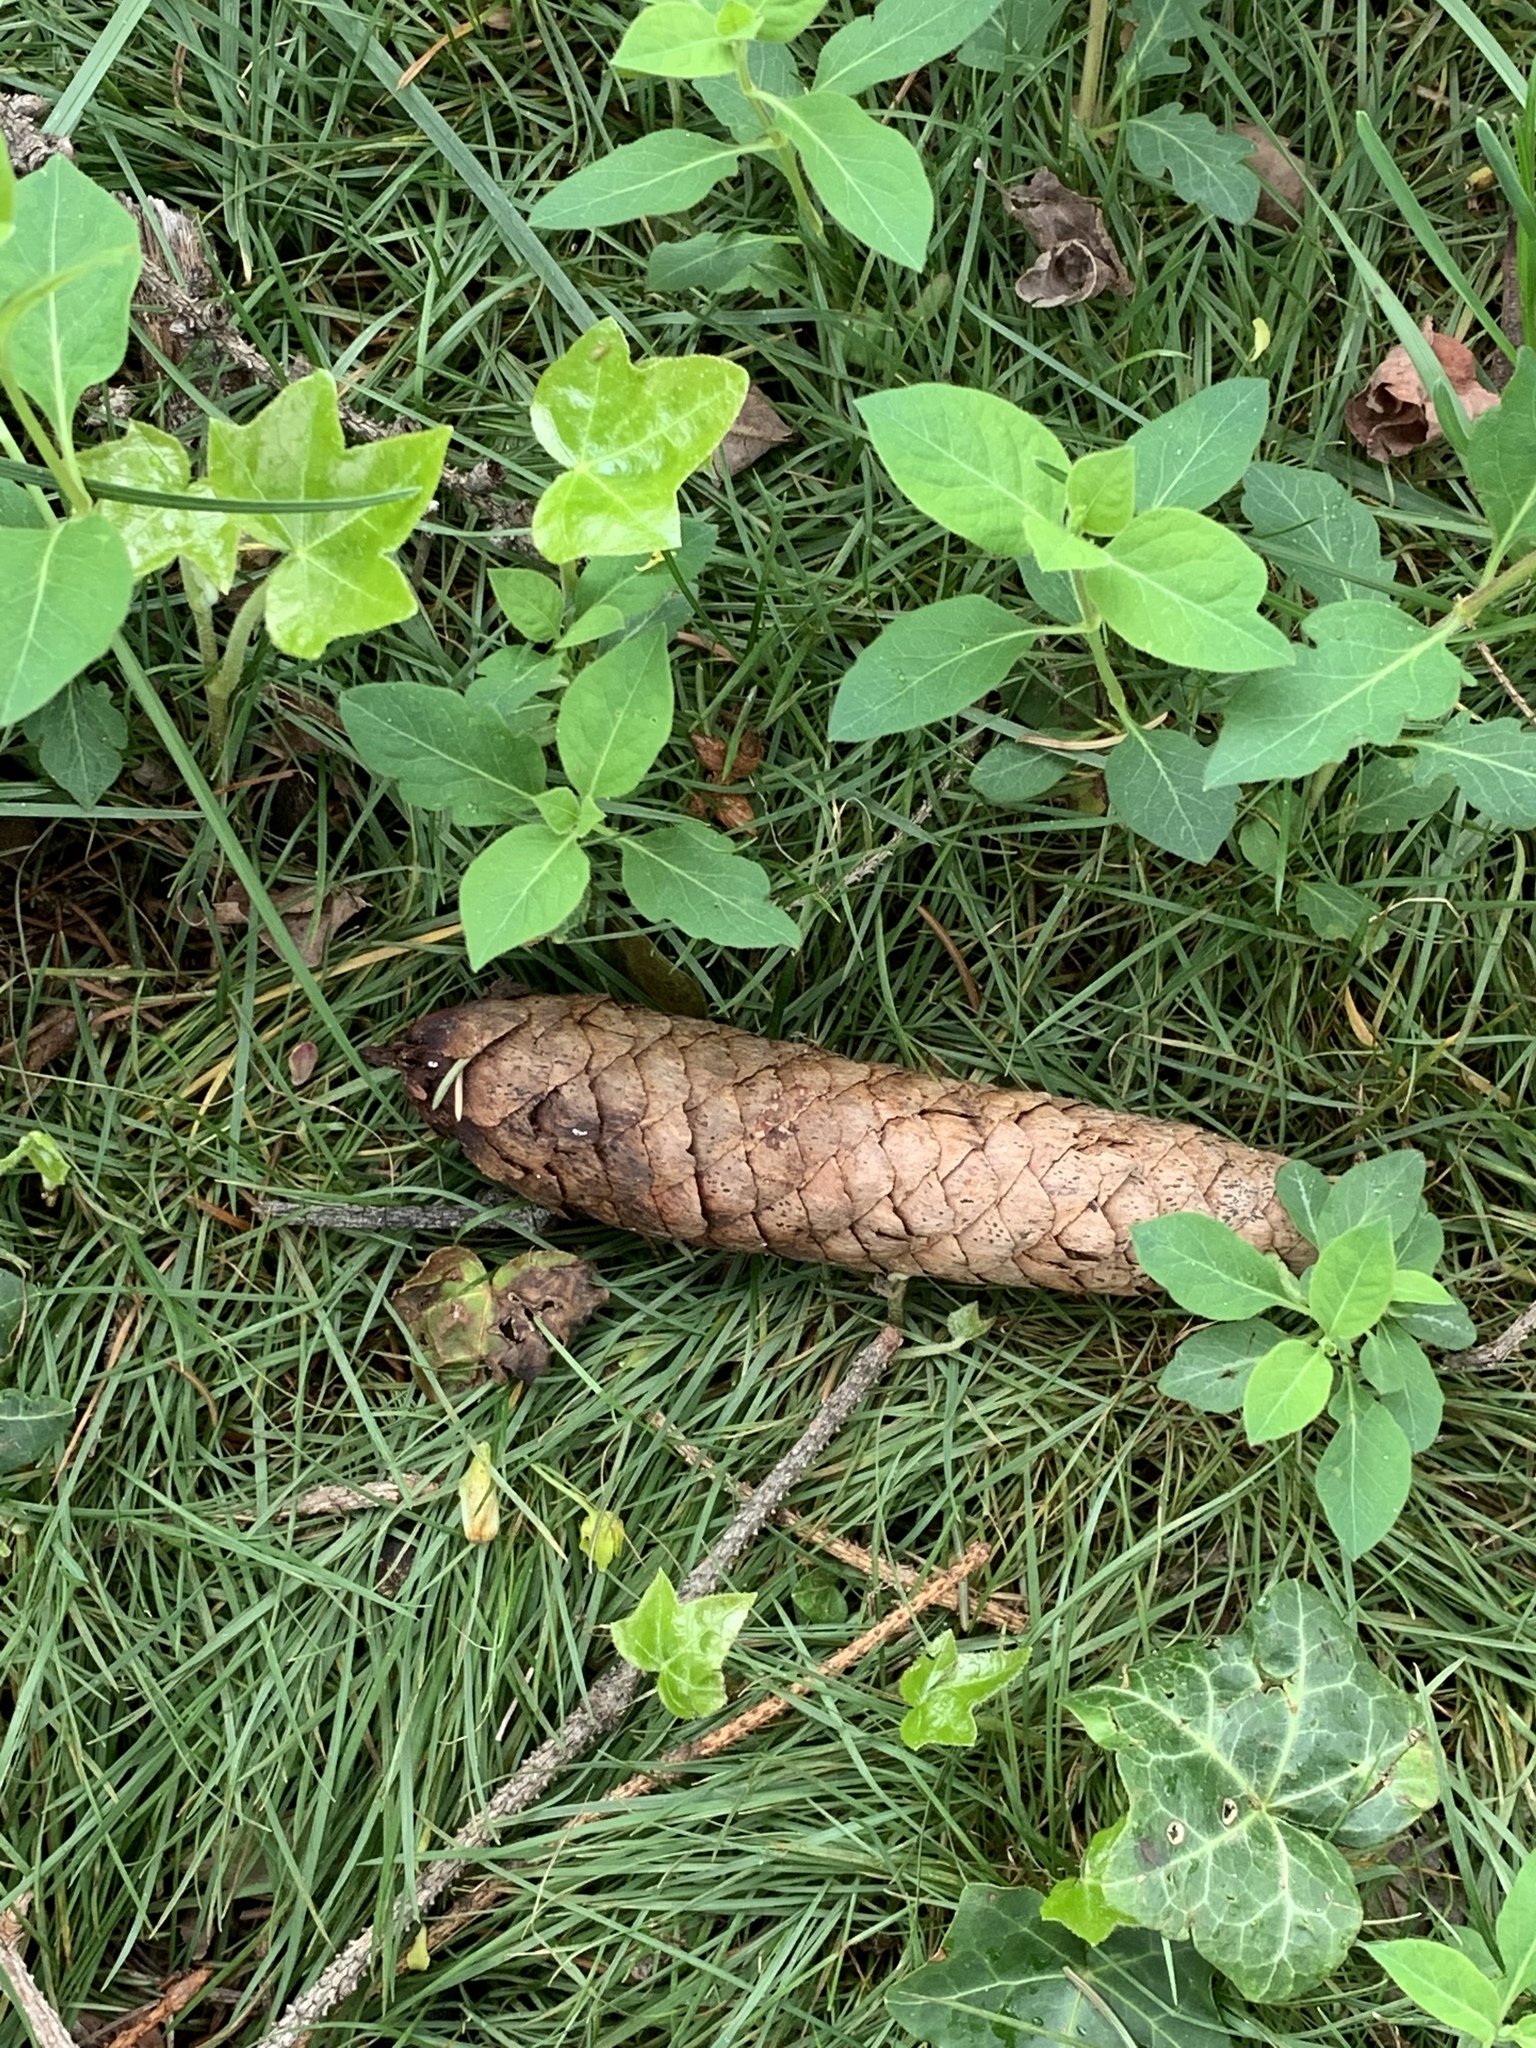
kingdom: Plantae
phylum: Tracheophyta
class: Pinopsida
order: Pinales
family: Pinaceae
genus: Picea
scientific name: Picea abies
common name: Norway spruce
